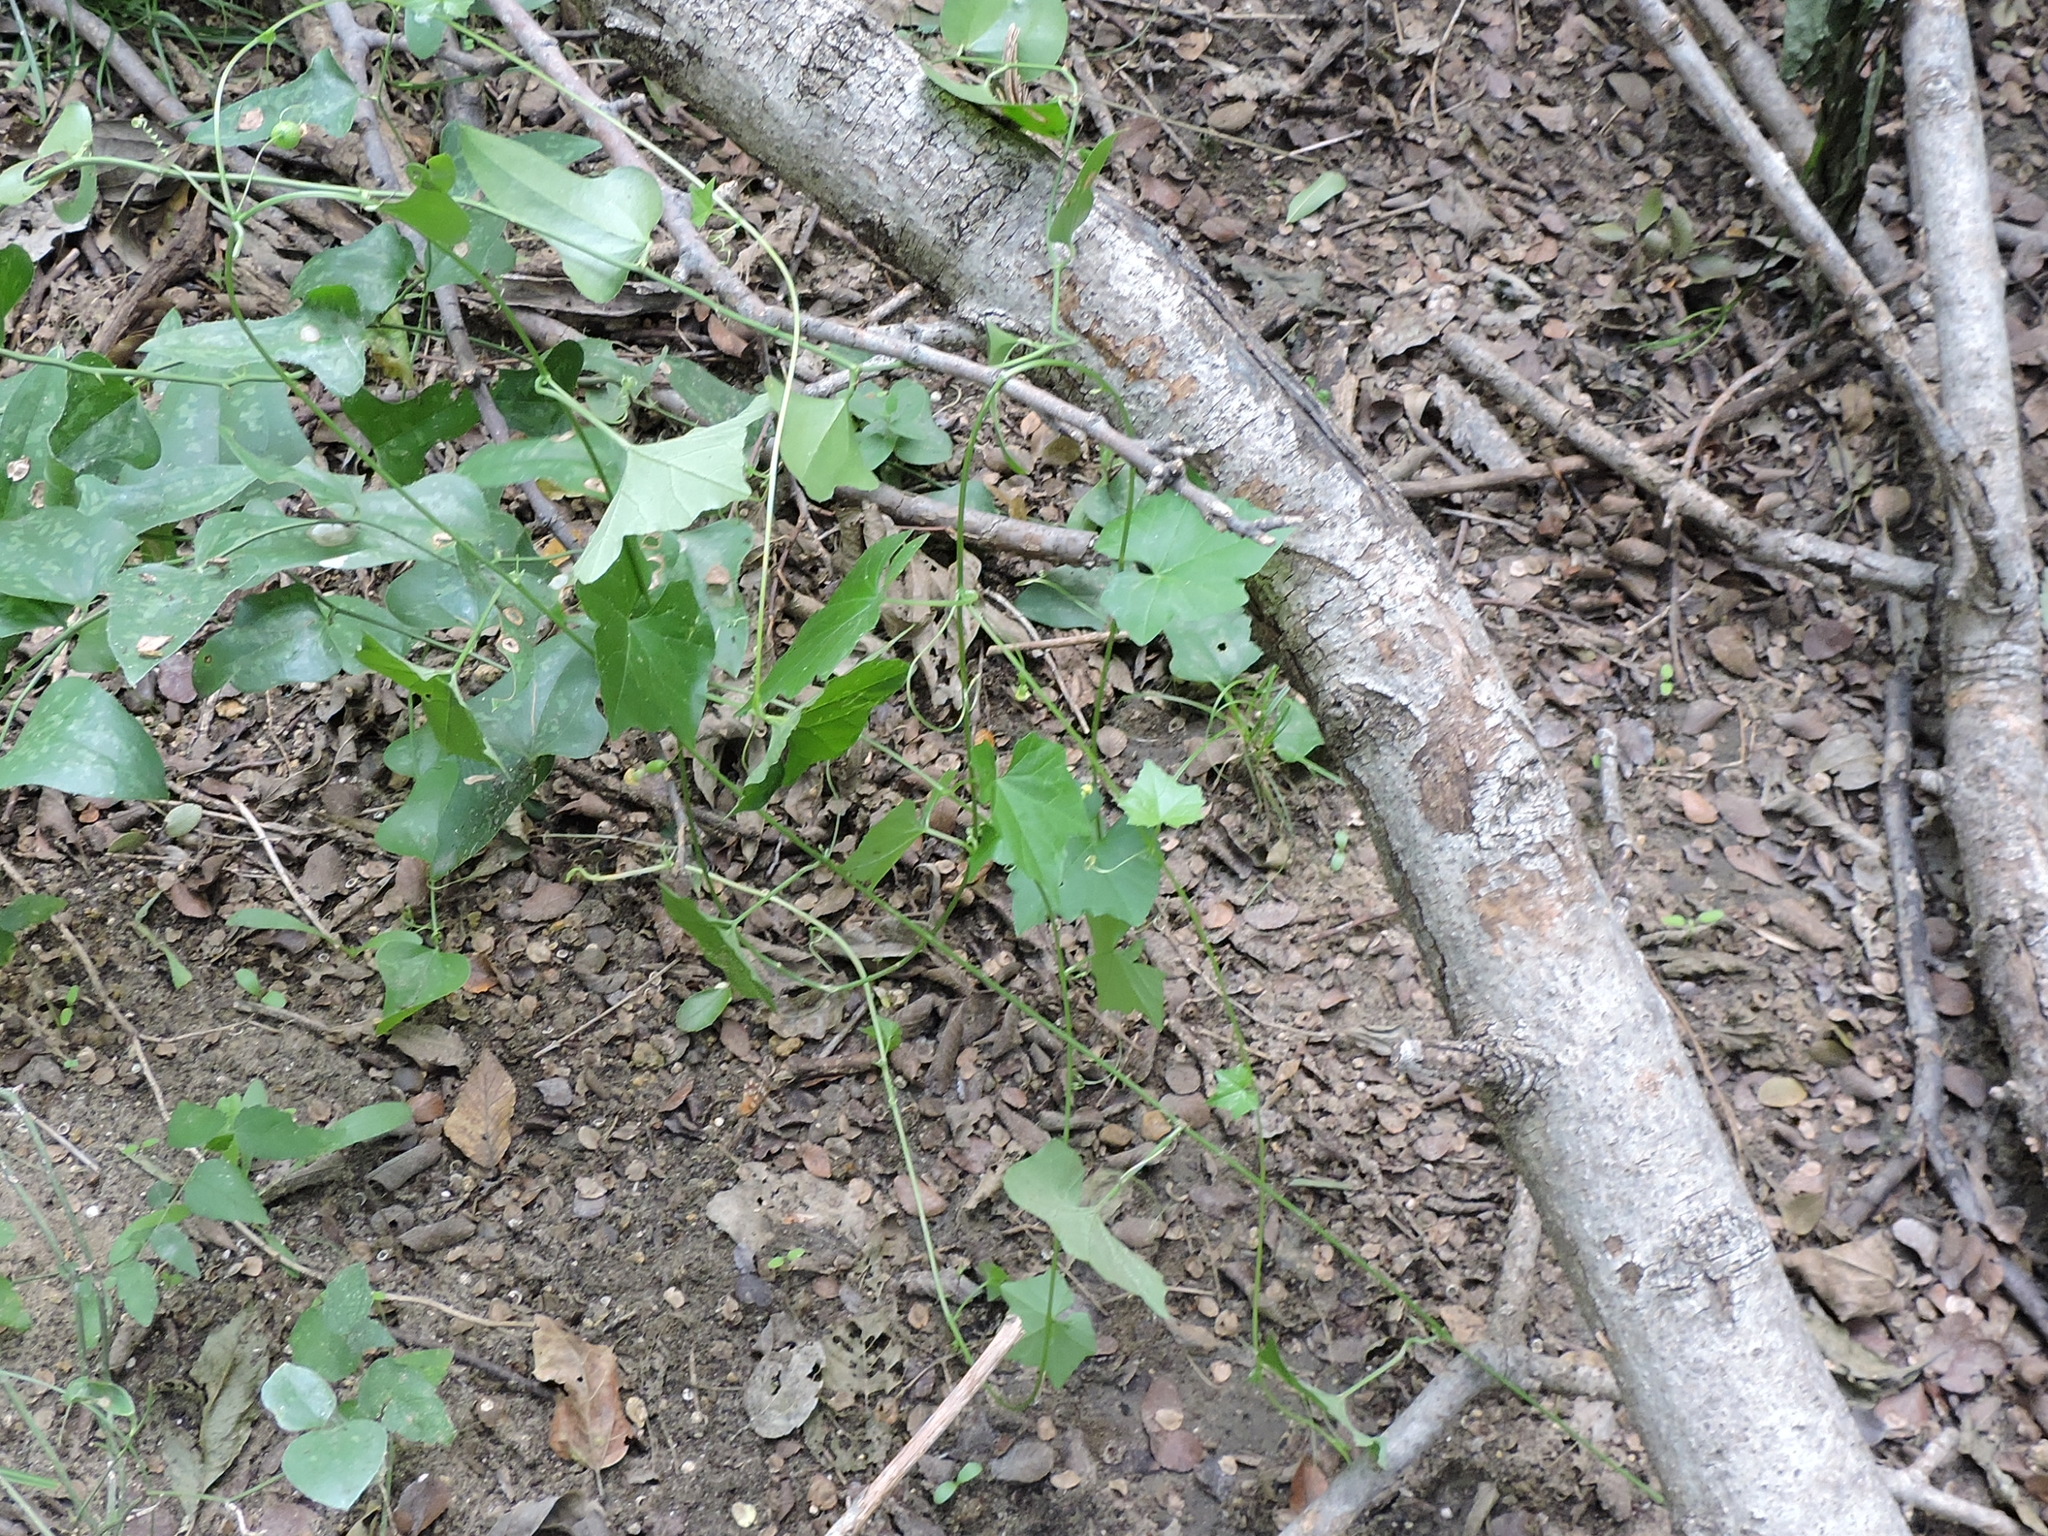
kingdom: Plantae
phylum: Tracheophyta
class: Magnoliopsida
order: Cucurbitales
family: Cucurbitaceae
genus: Melothria
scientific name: Melothria pendula
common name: Creeping-cucumber
